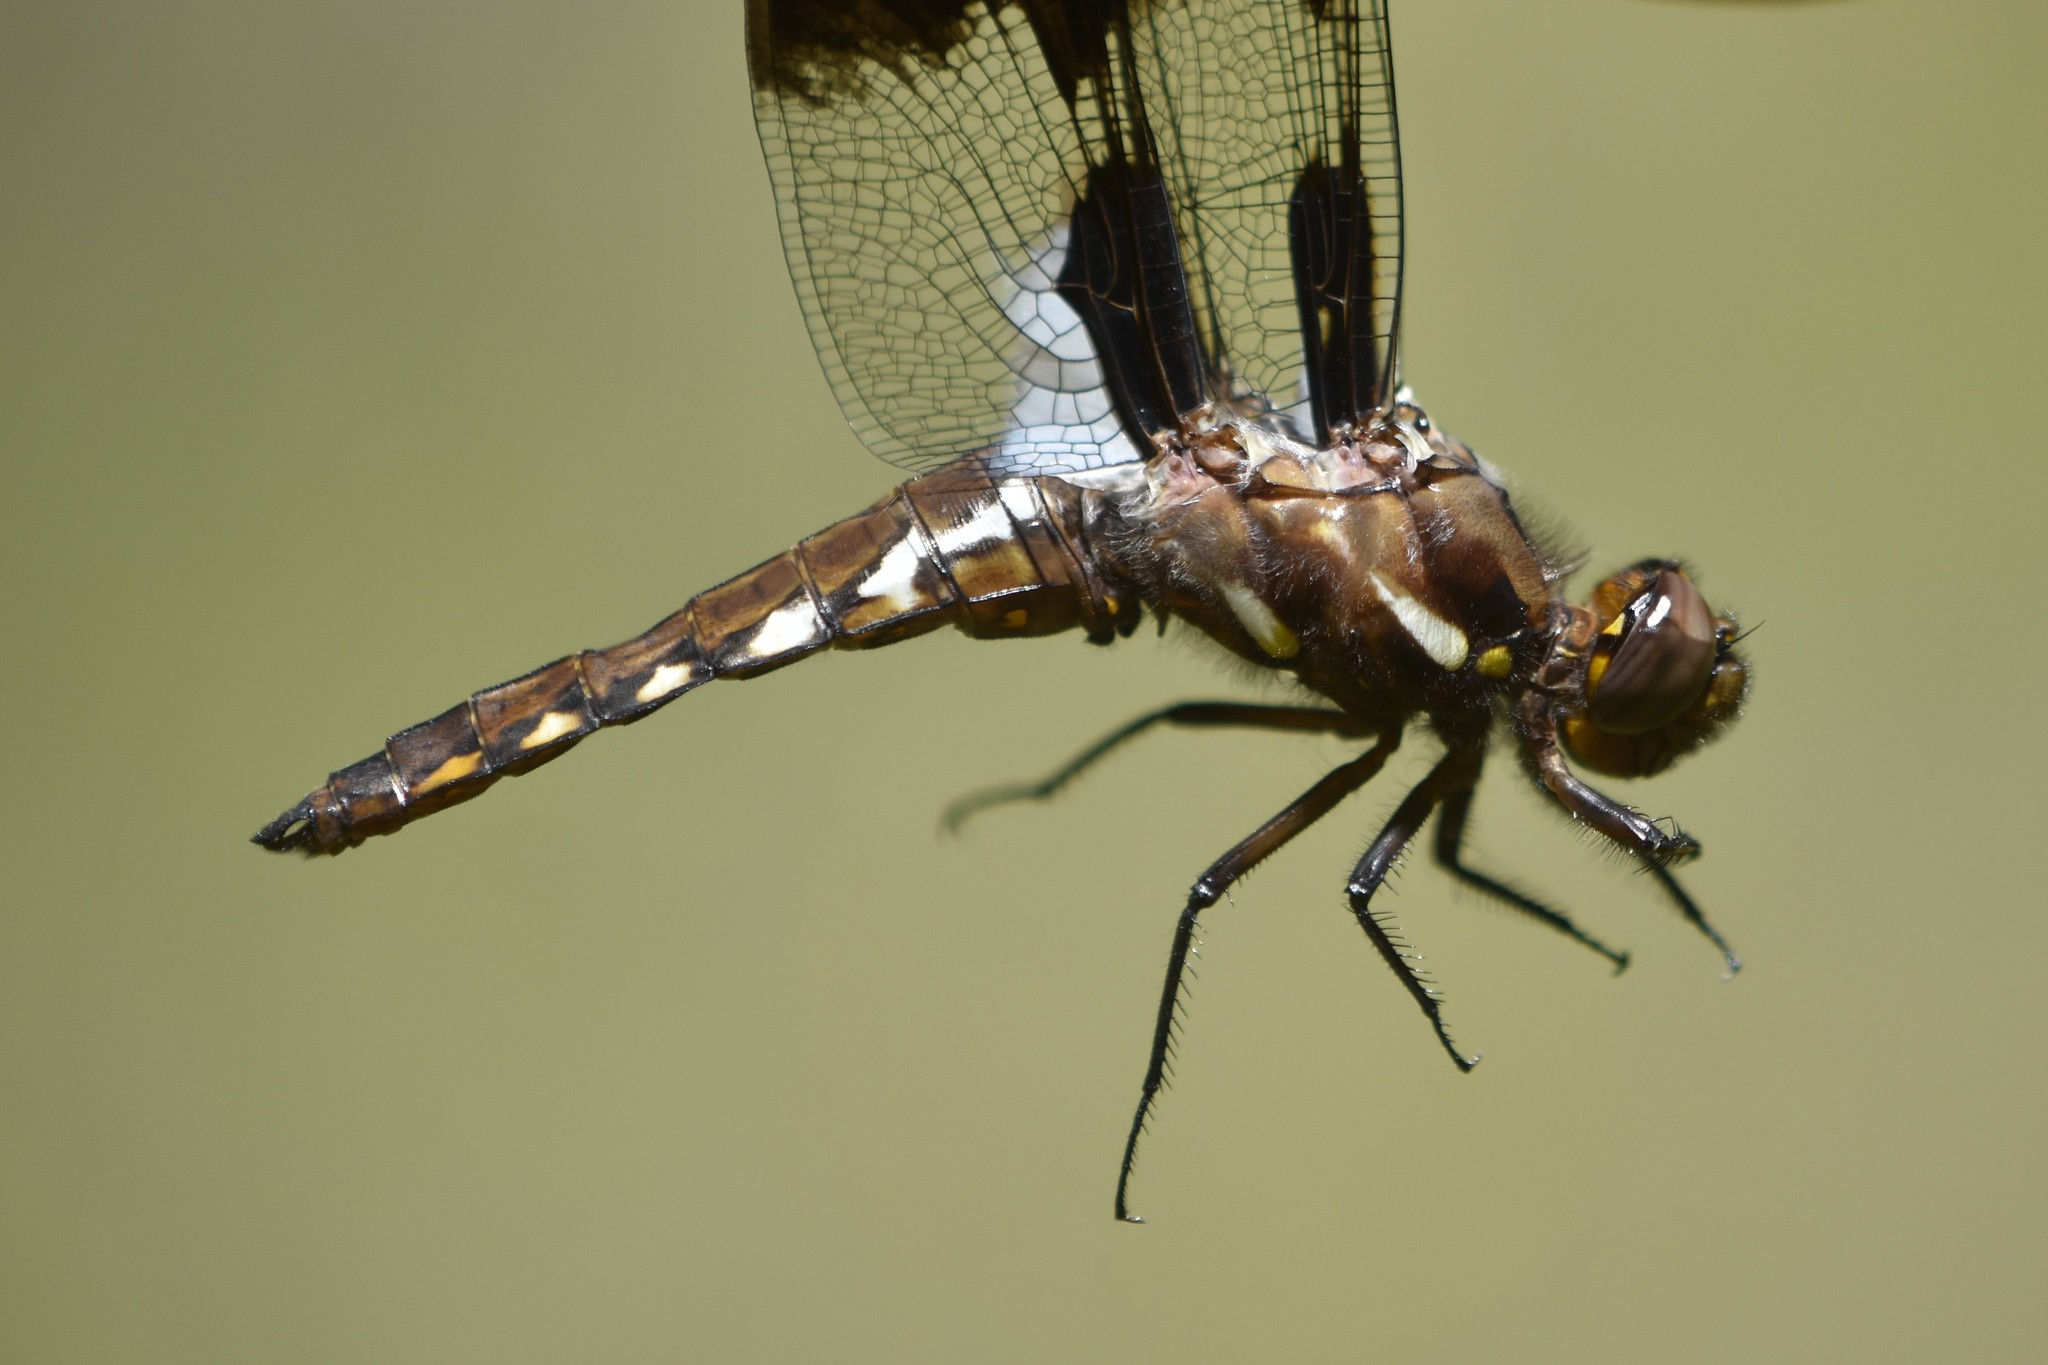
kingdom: Animalia
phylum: Arthropoda
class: Insecta
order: Odonata
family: Libellulidae
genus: Plathemis
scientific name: Plathemis lydia
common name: Common whitetail
